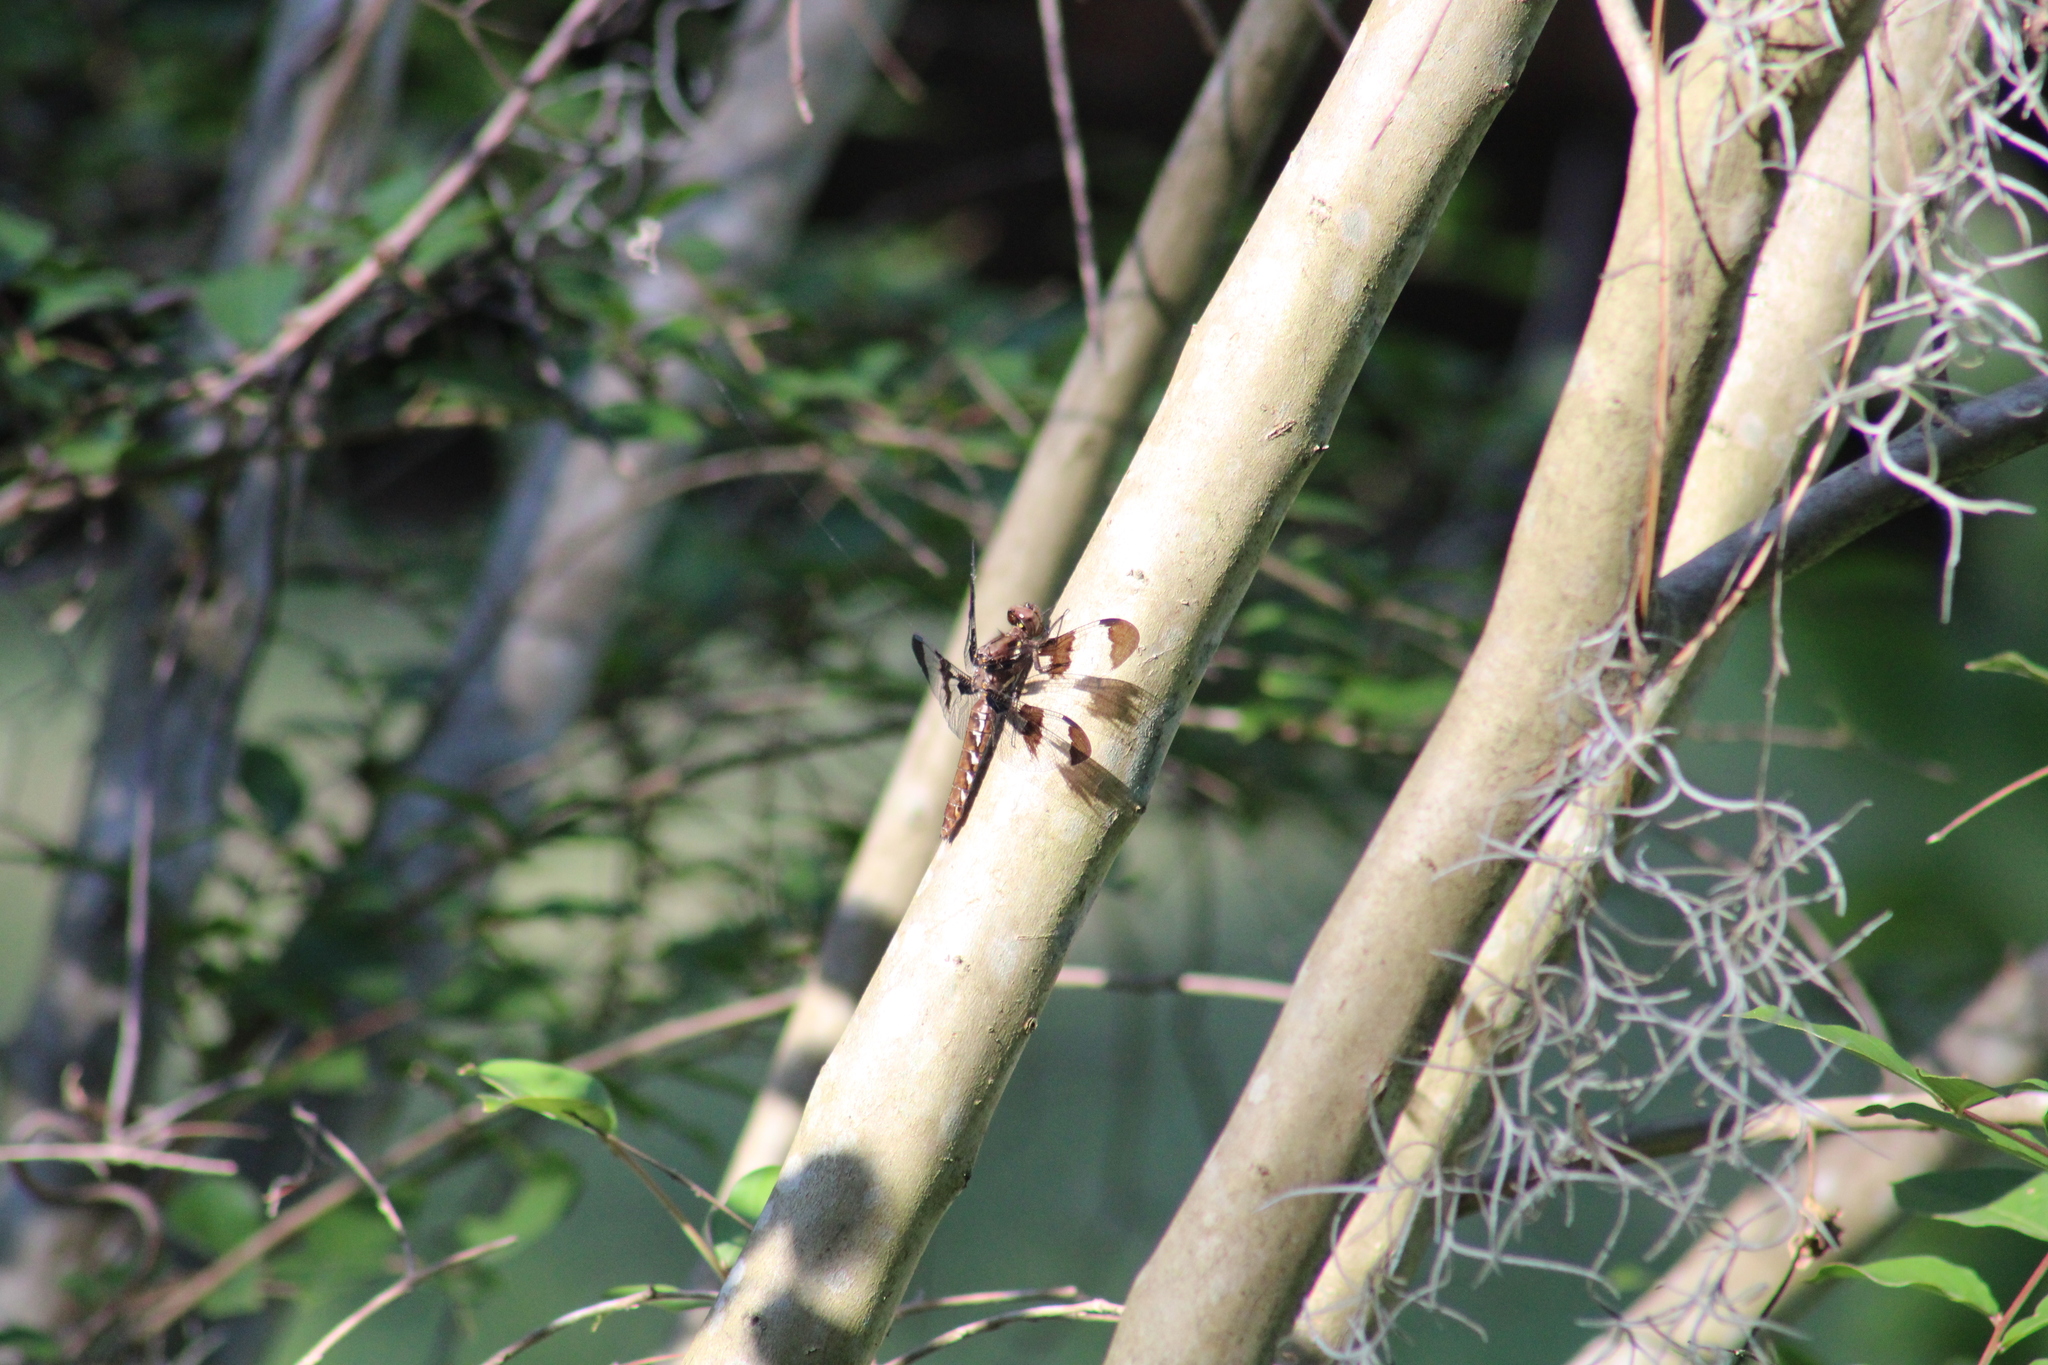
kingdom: Animalia
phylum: Arthropoda
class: Insecta
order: Odonata
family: Libellulidae
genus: Plathemis
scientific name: Plathemis lydia
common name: Common whitetail
